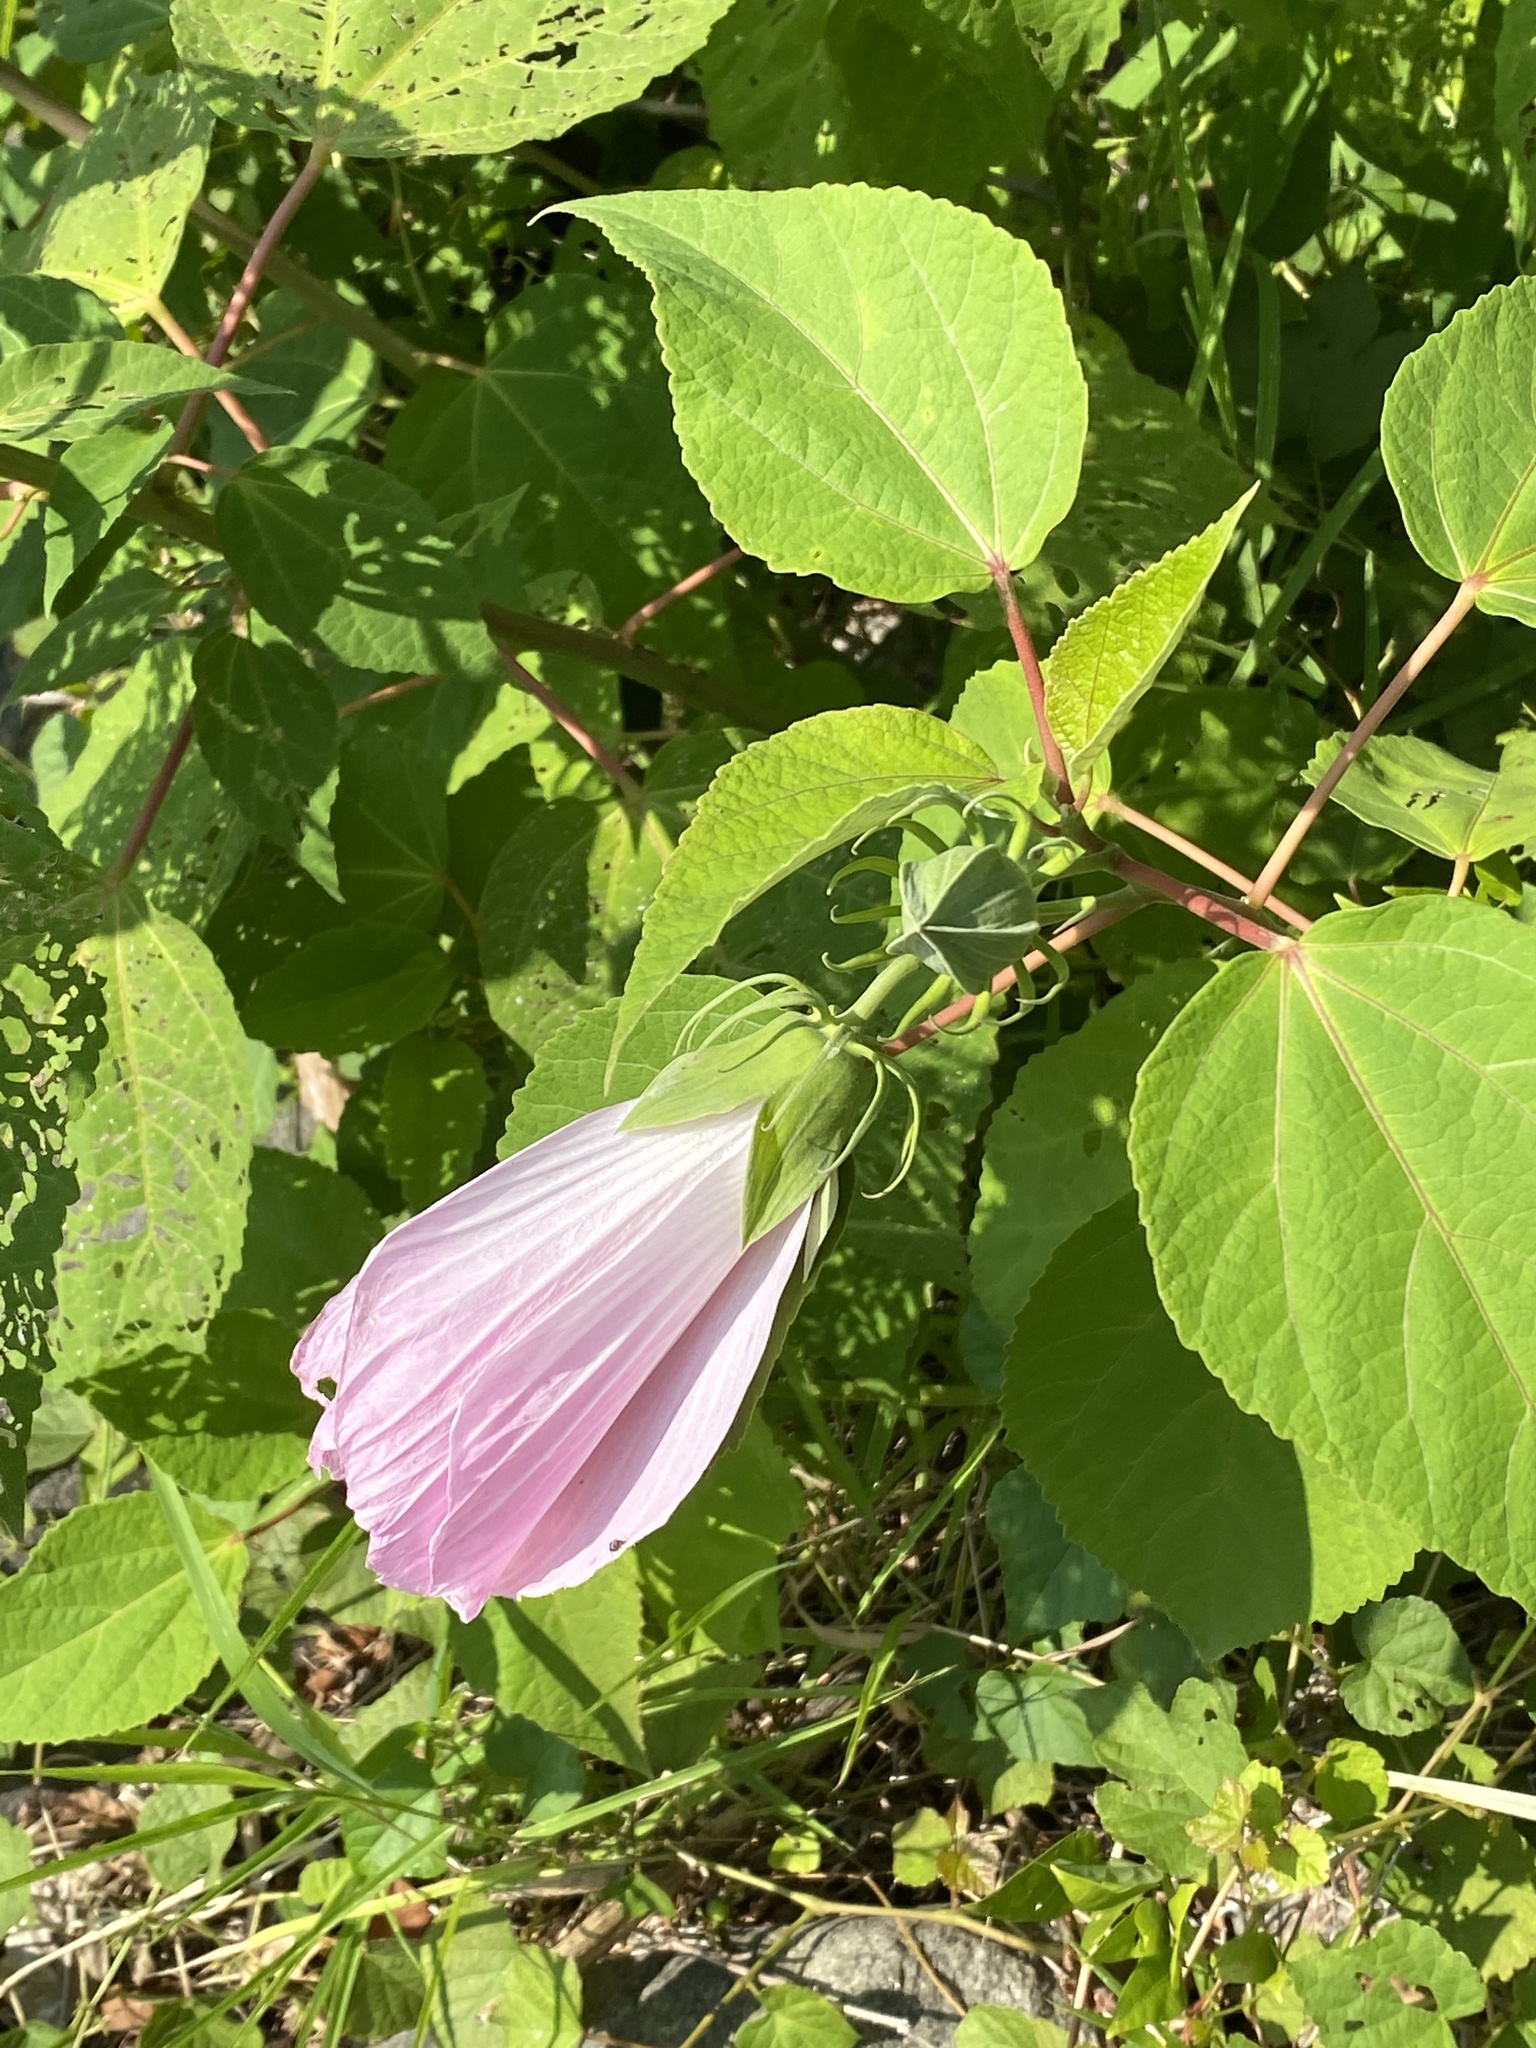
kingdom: Plantae
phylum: Tracheophyta
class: Magnoliopsida
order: Malvales
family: Malvaceae
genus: Hibiscus
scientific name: Hibiscus moscheutos
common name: Common rose-mallow
